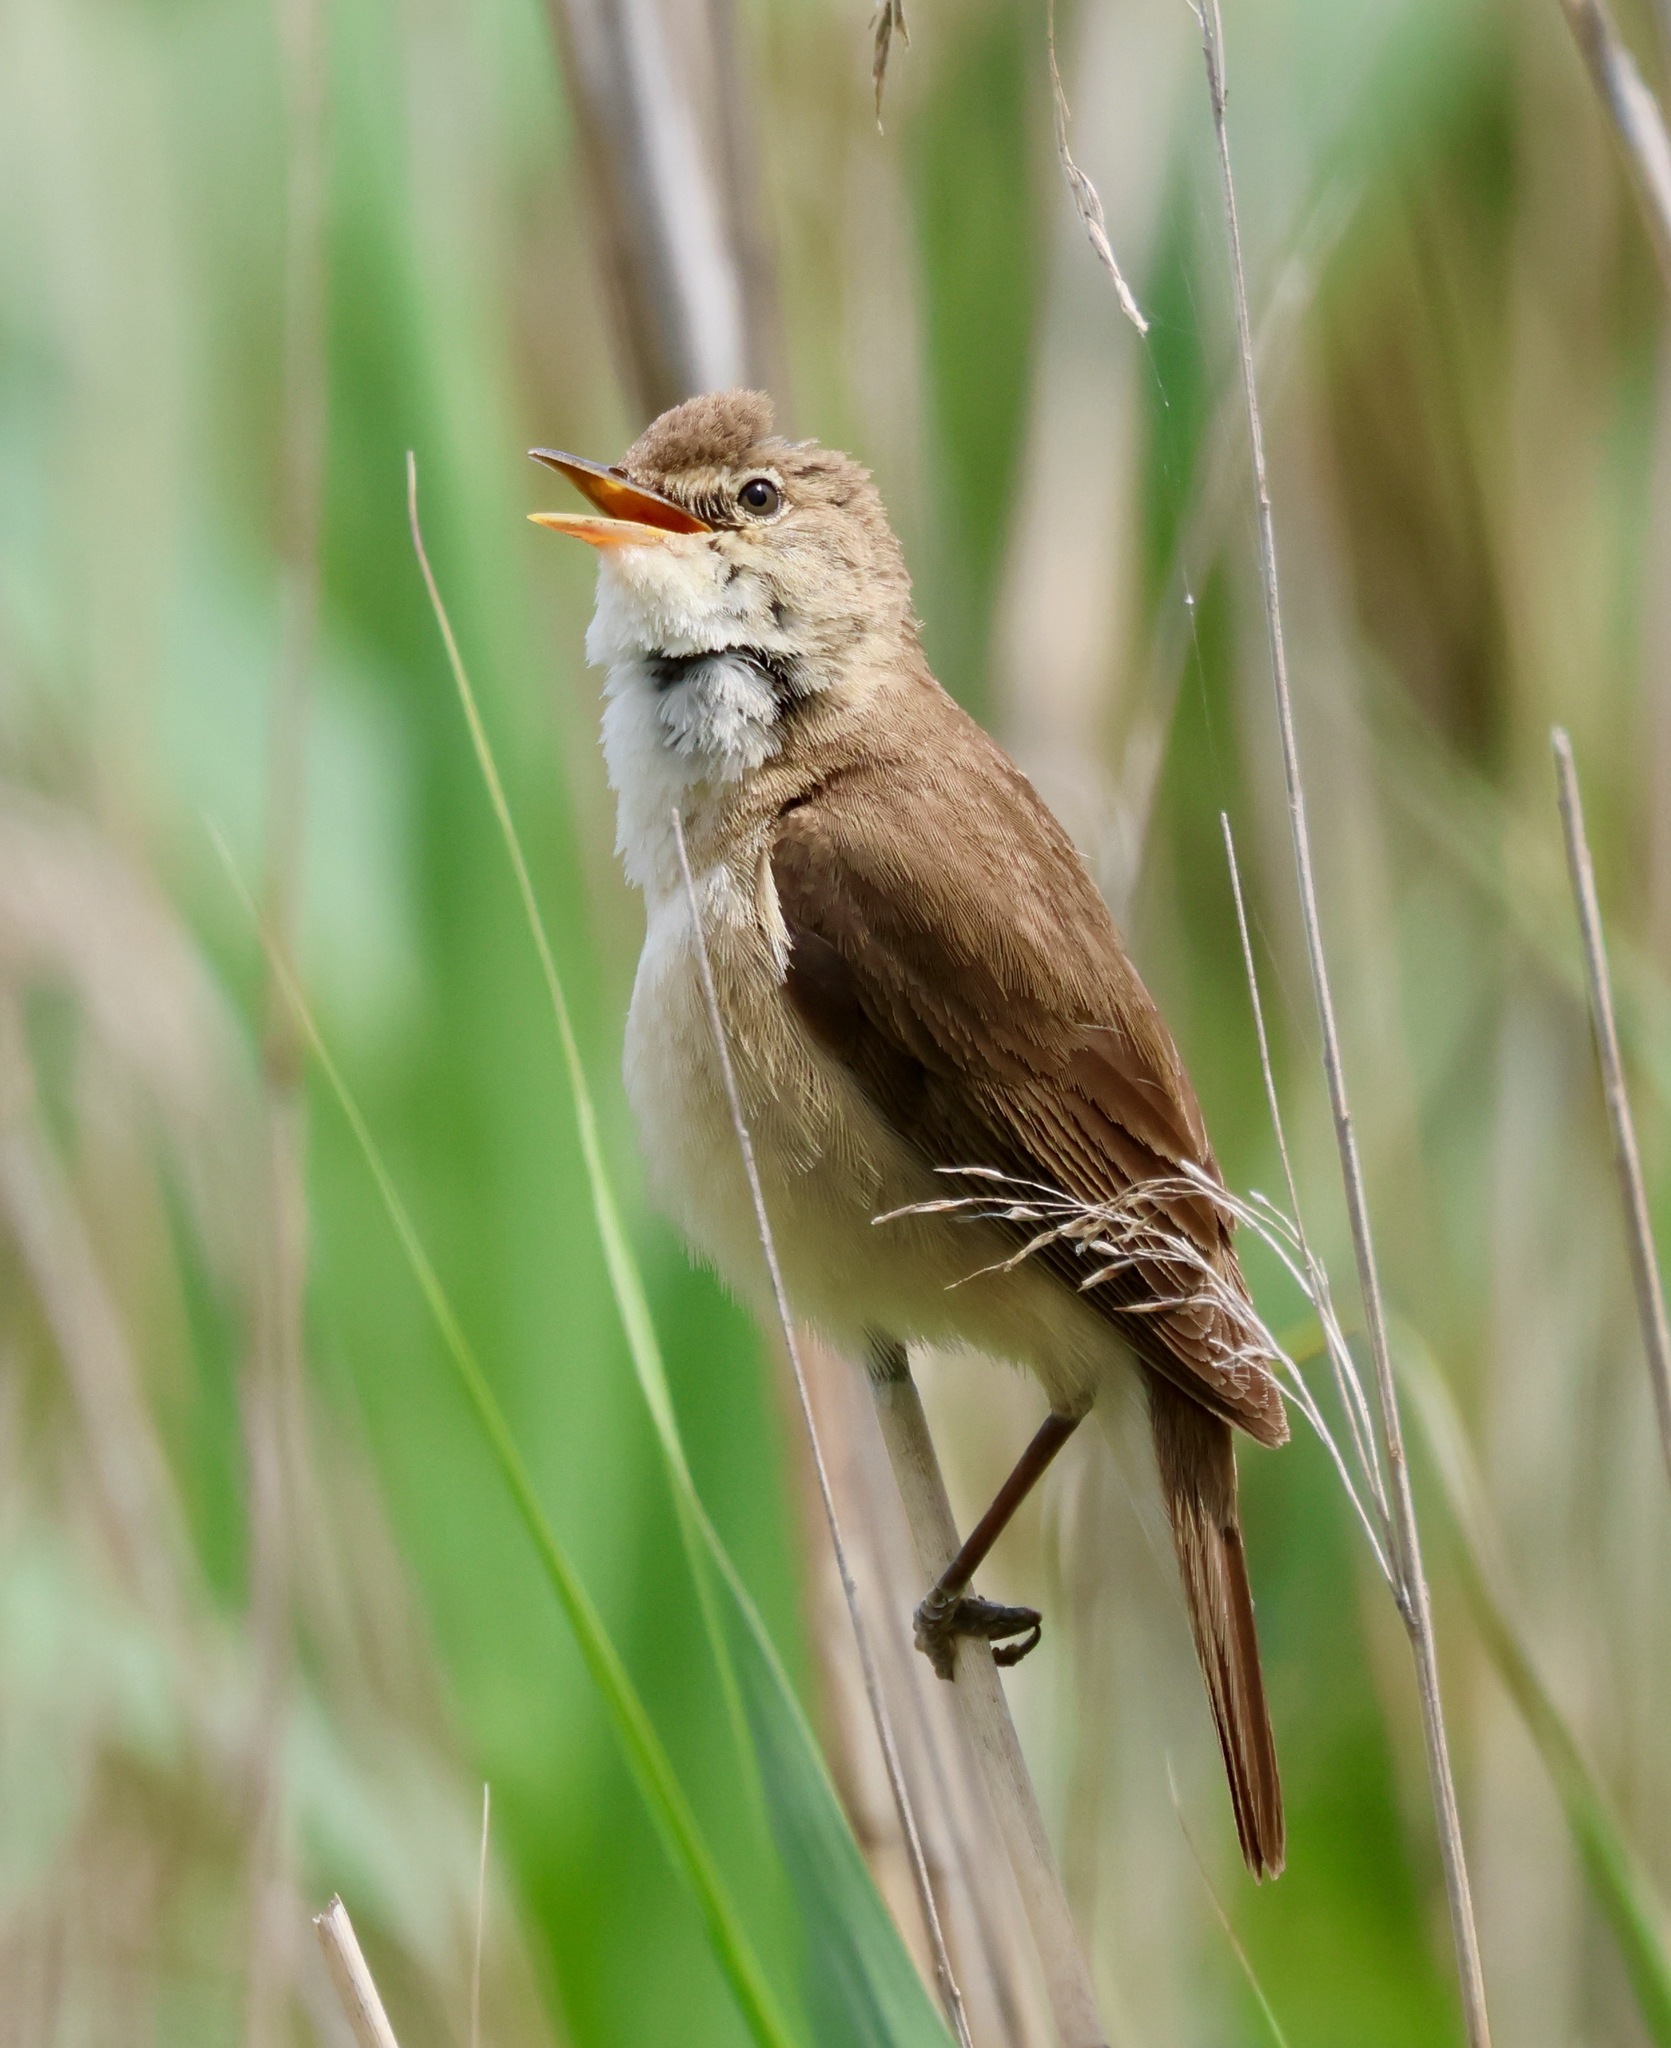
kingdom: Animalia
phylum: Chordata
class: Aves
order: Passeriformes
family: Acrocephalidae
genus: Acrocephalus
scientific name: Acrocephalus scirpaceus
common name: Eurasian reed warbler
